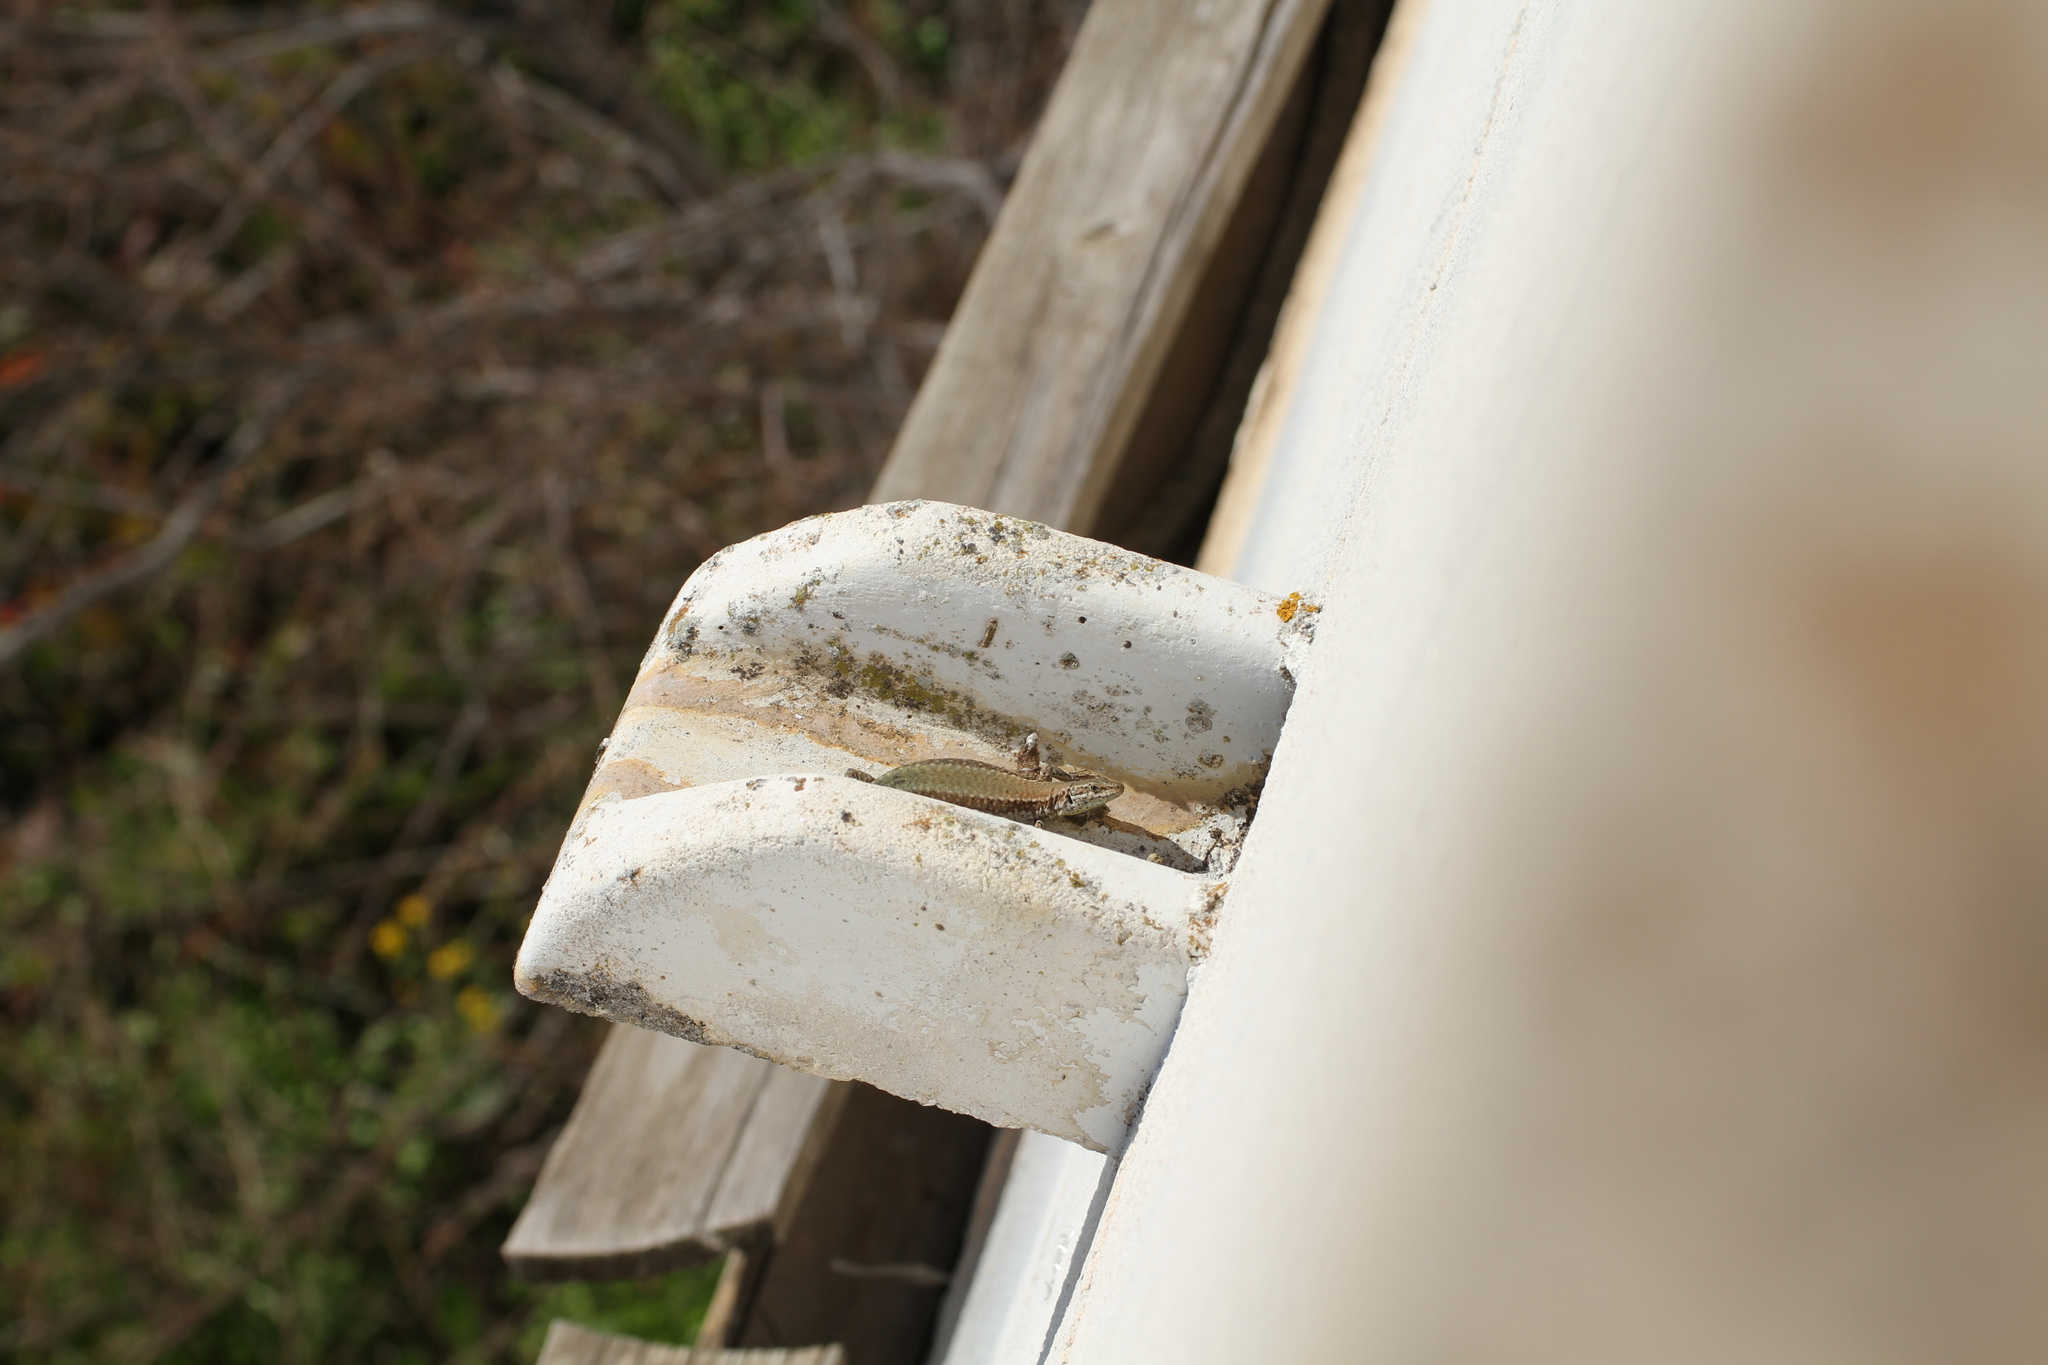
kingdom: Animalia
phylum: Chordata
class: Squamata
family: Lacertidae
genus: Podarcis
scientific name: Podarcis vaucheri
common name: Vaucher's wall lizard
